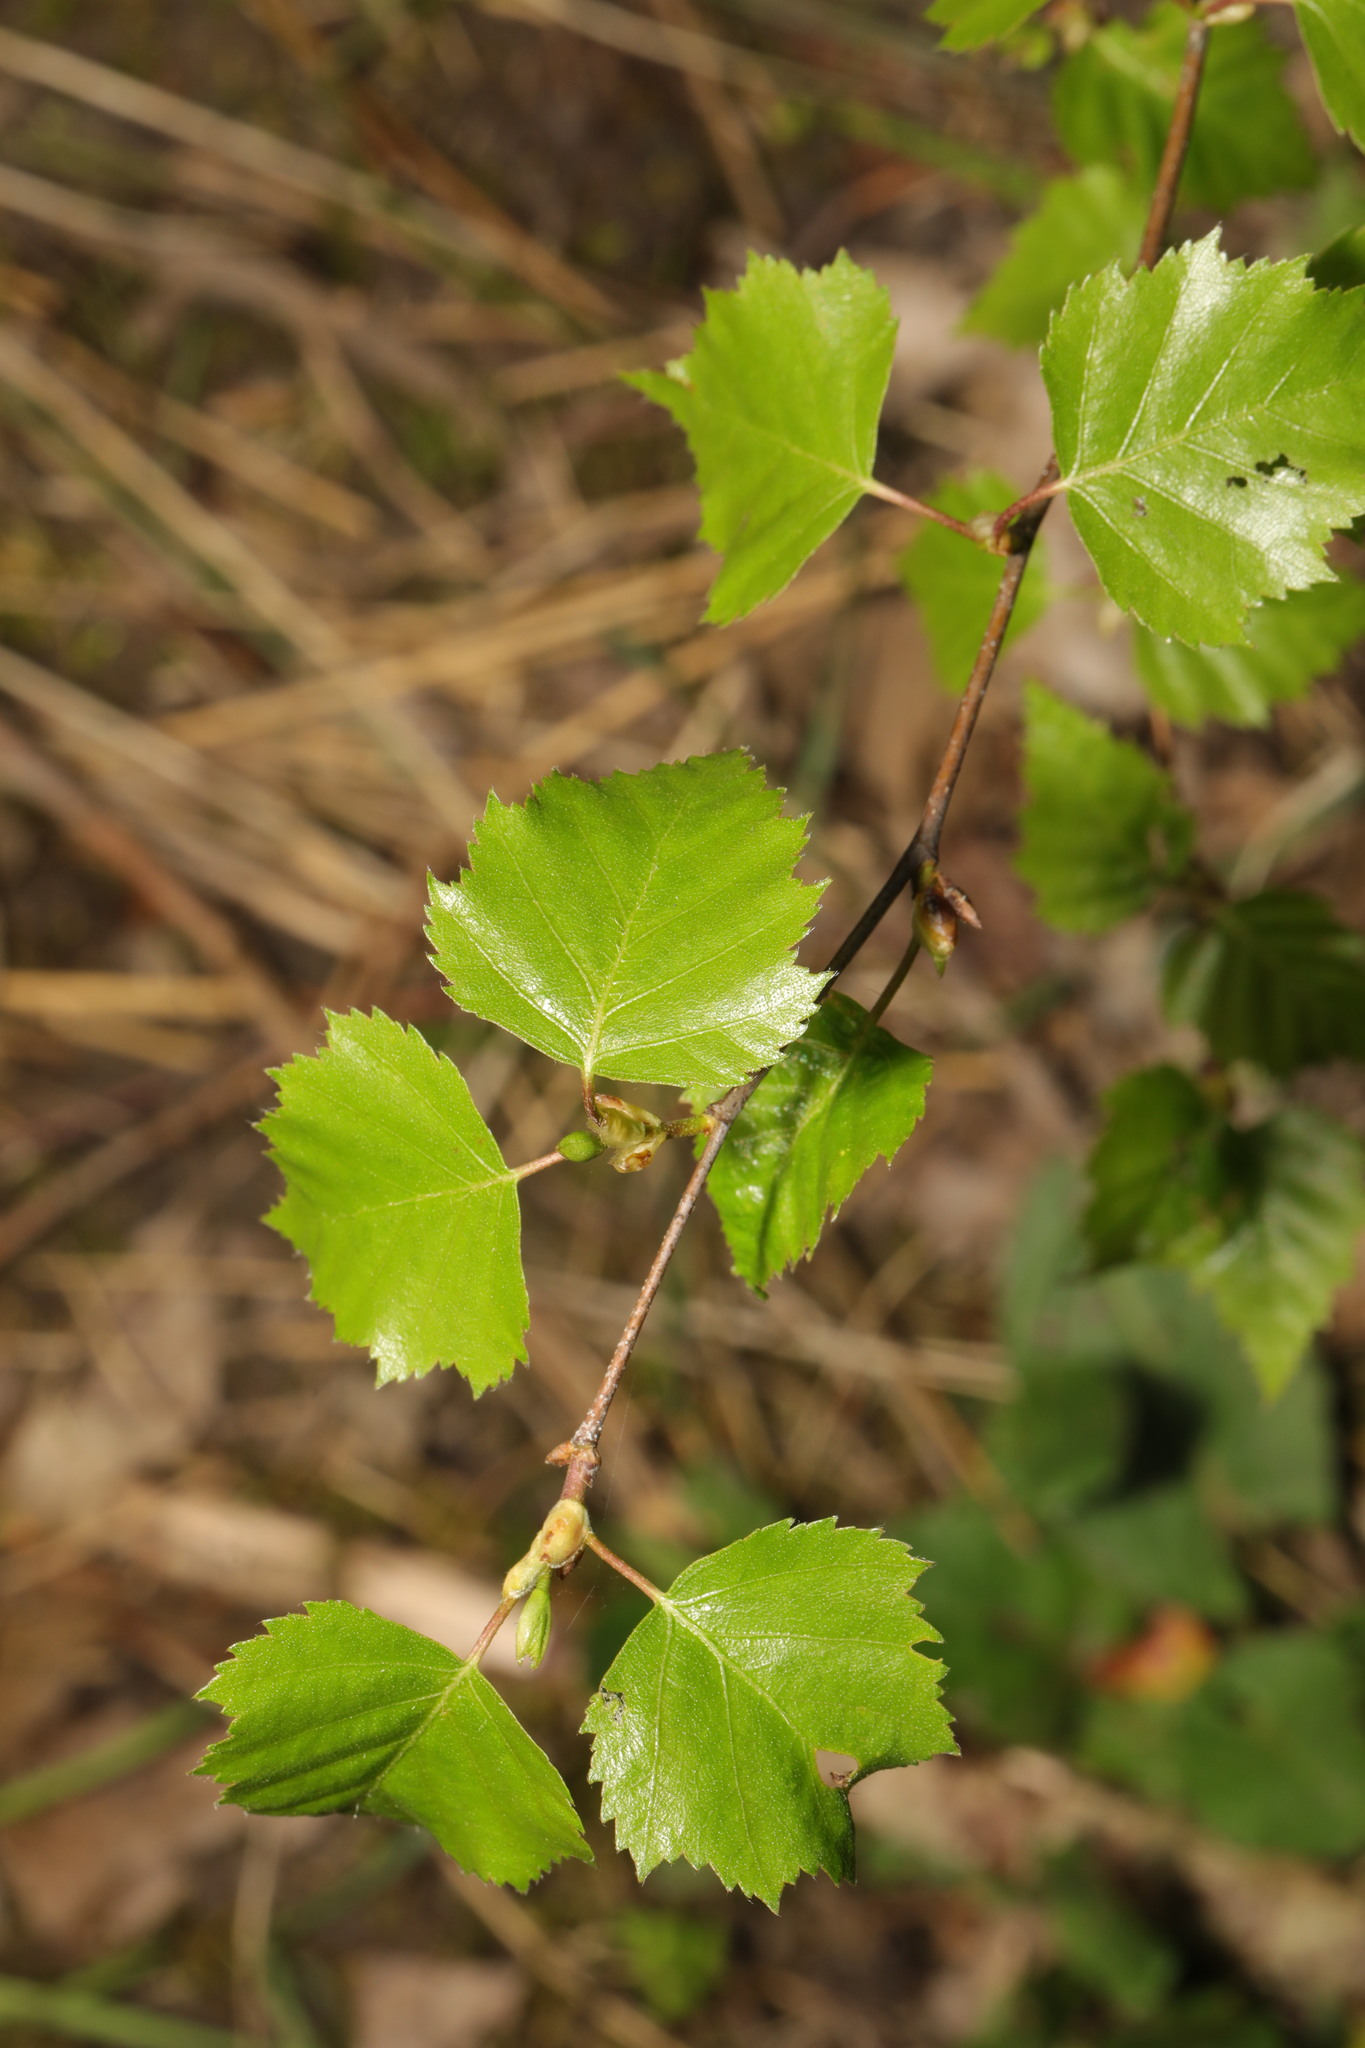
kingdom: Plantae
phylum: Tracheophyta
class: Magnoliopsida
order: Fagales
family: Betulaceae
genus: Betula
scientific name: Betula pendula
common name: Silver birch
